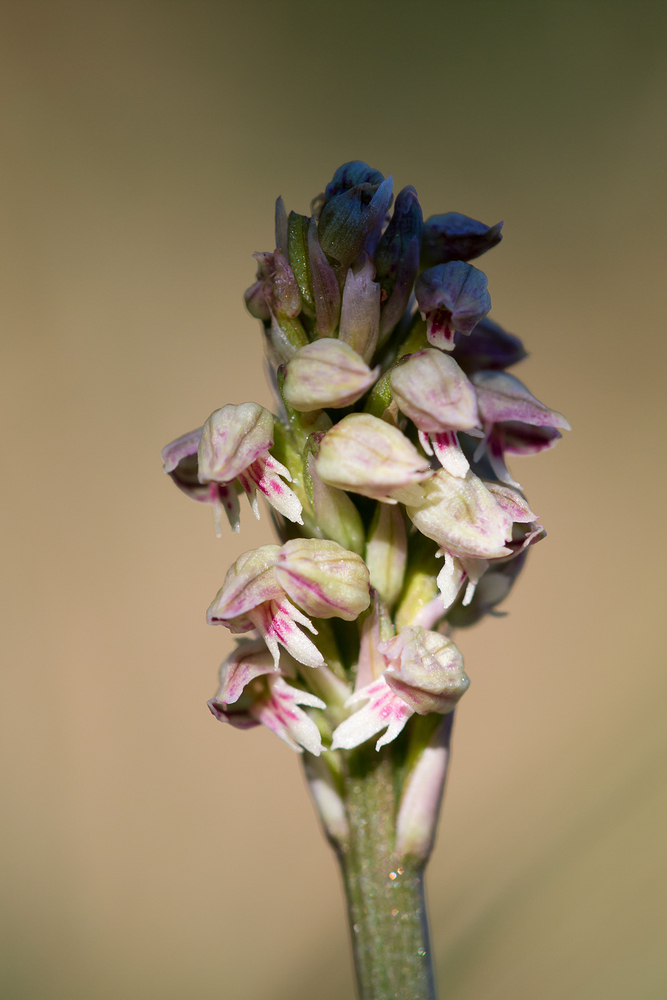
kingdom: Plantae
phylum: Tracheophyta
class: Liliopsida
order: Asparagales
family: Orchidaceae
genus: Neotinea
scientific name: Neotinea maculata
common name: Dense-flowered orchid
